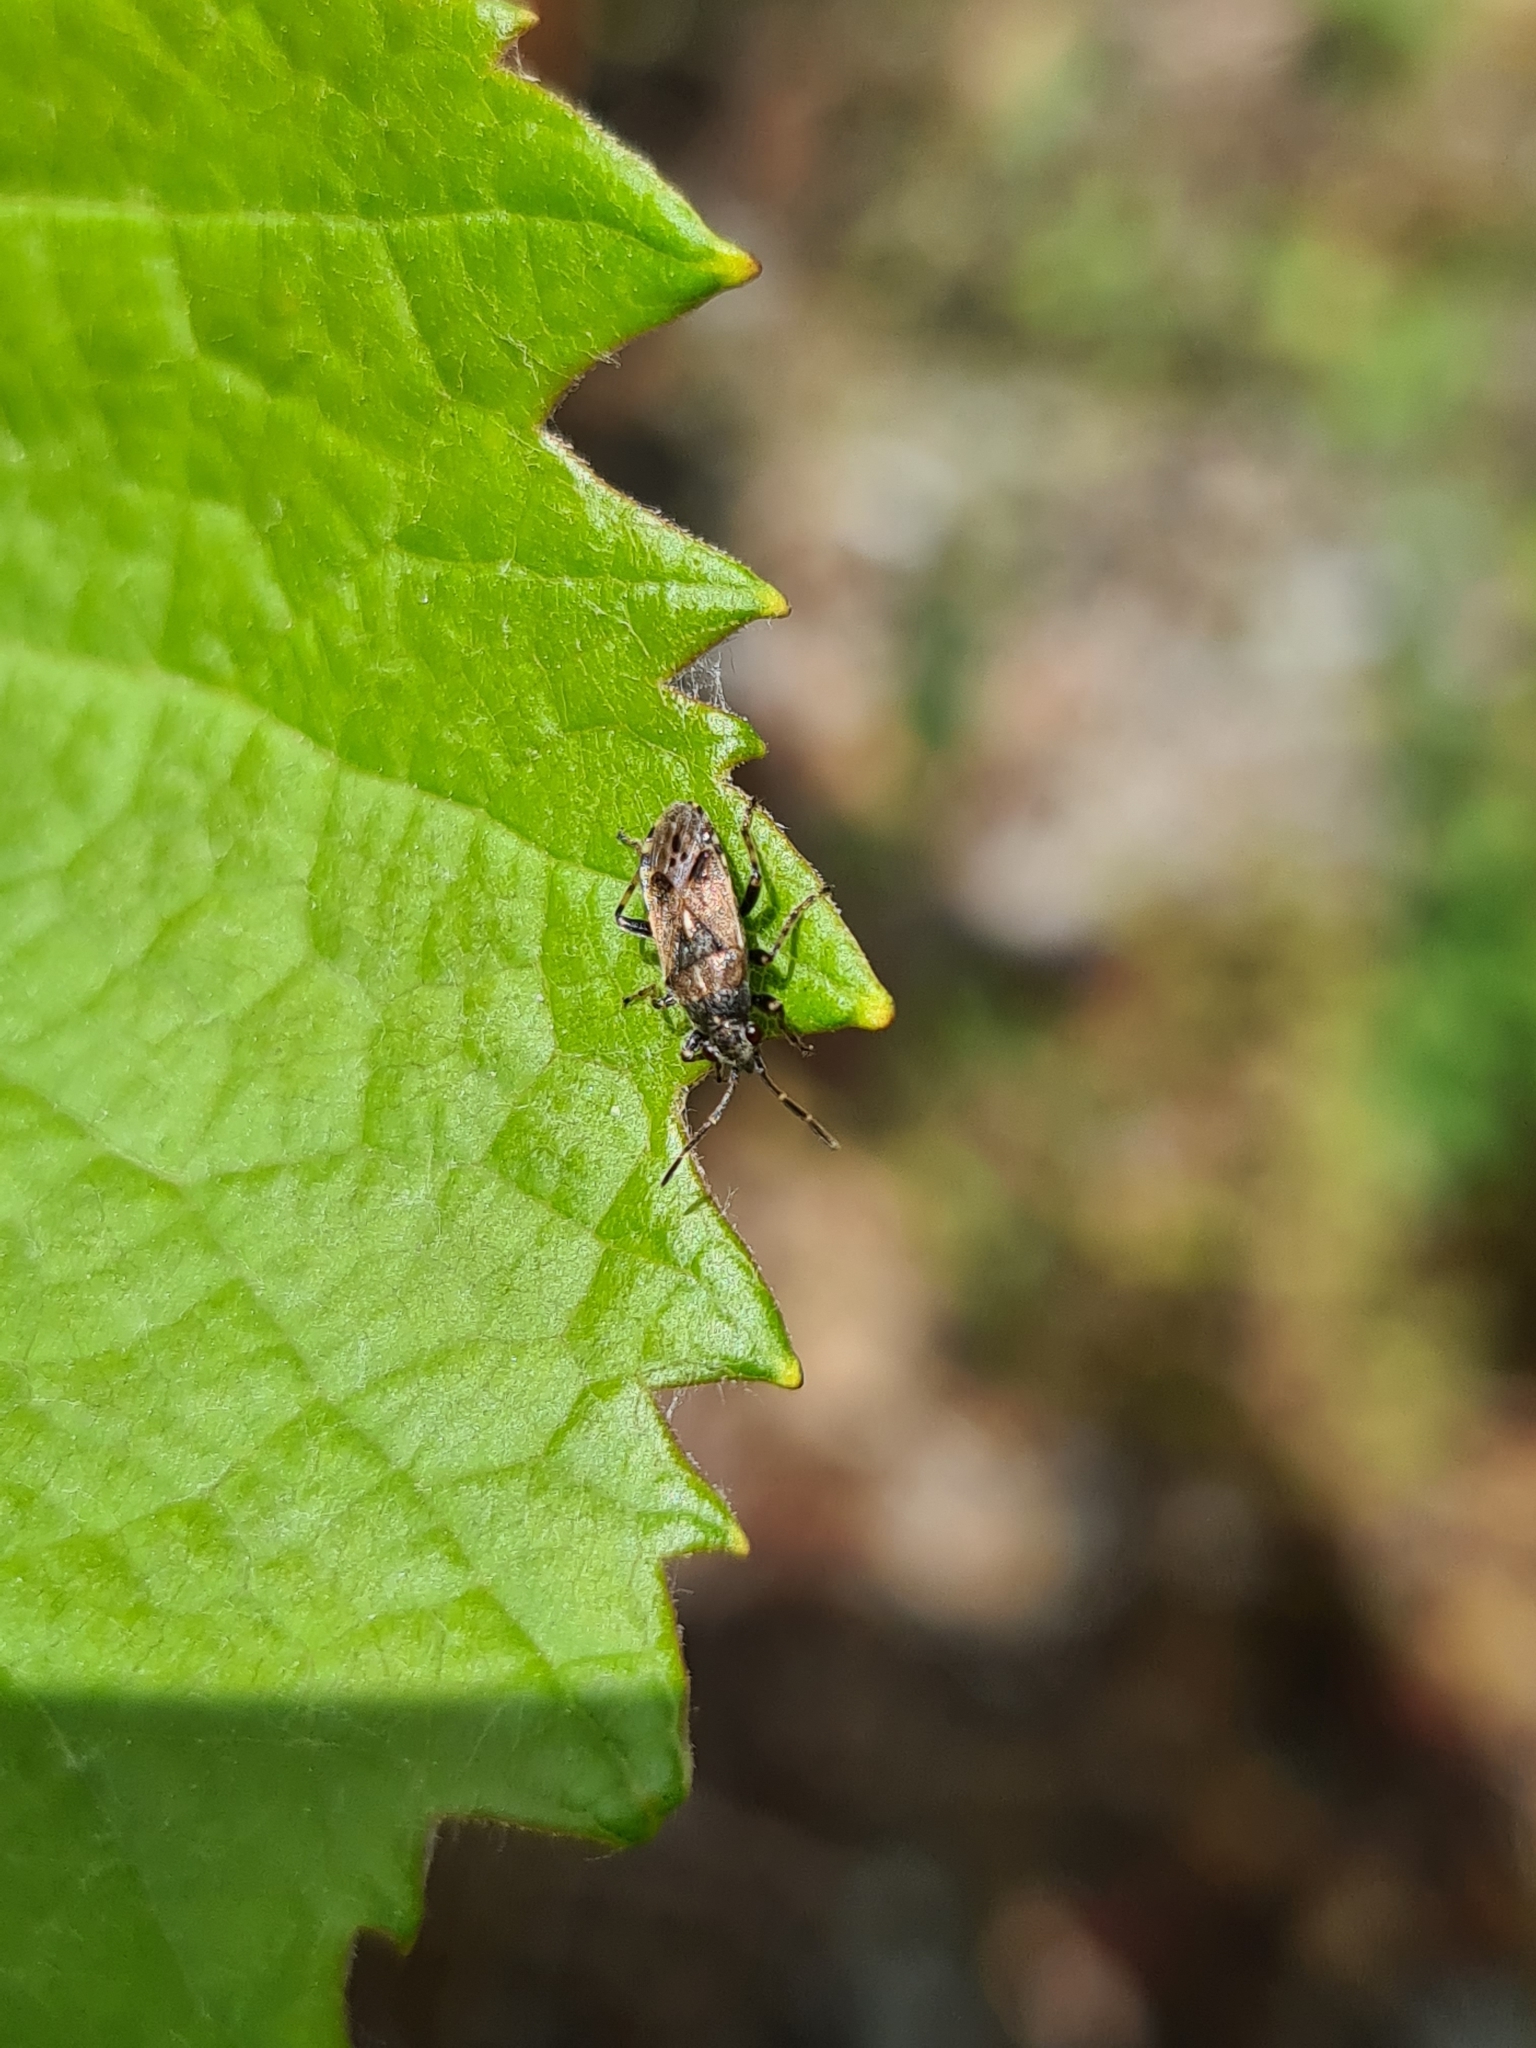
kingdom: Animalia
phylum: Arthropoda
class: Insecta
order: Hemiptera
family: Heterogastridae
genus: Heterogaster
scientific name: Heterogaster affinis
